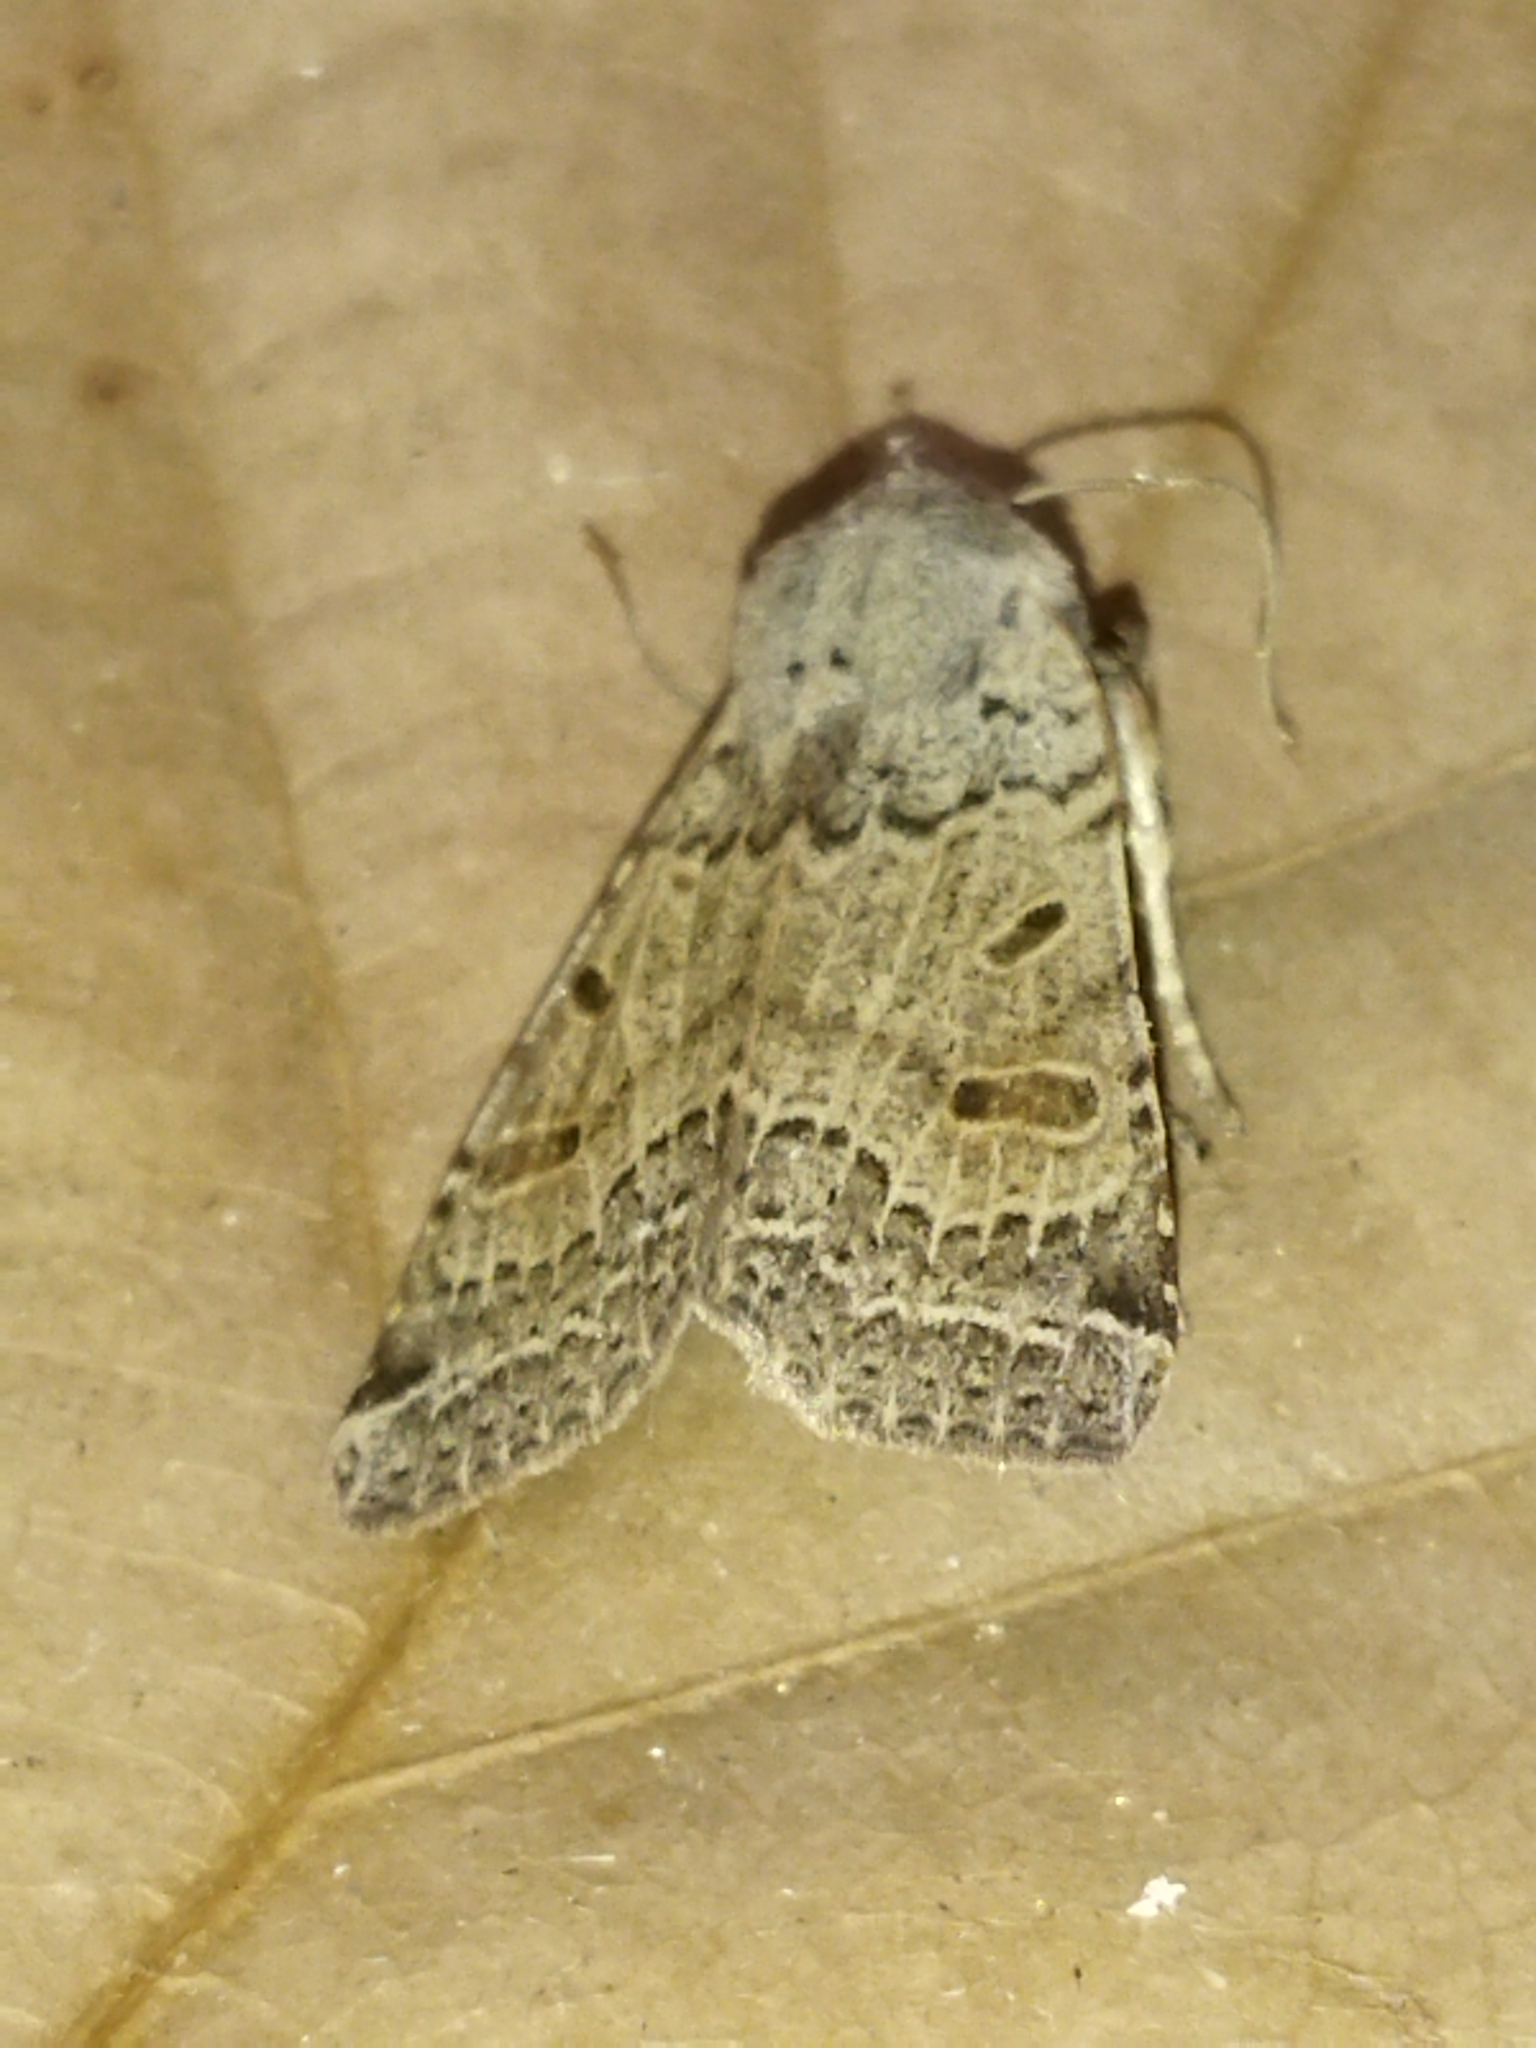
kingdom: Animalia
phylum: Arthropoda
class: Insecta
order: Lepidoptera
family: Noctuidae
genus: Agrochola
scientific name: Agrochola lychnidis
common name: Beaded chestnut
